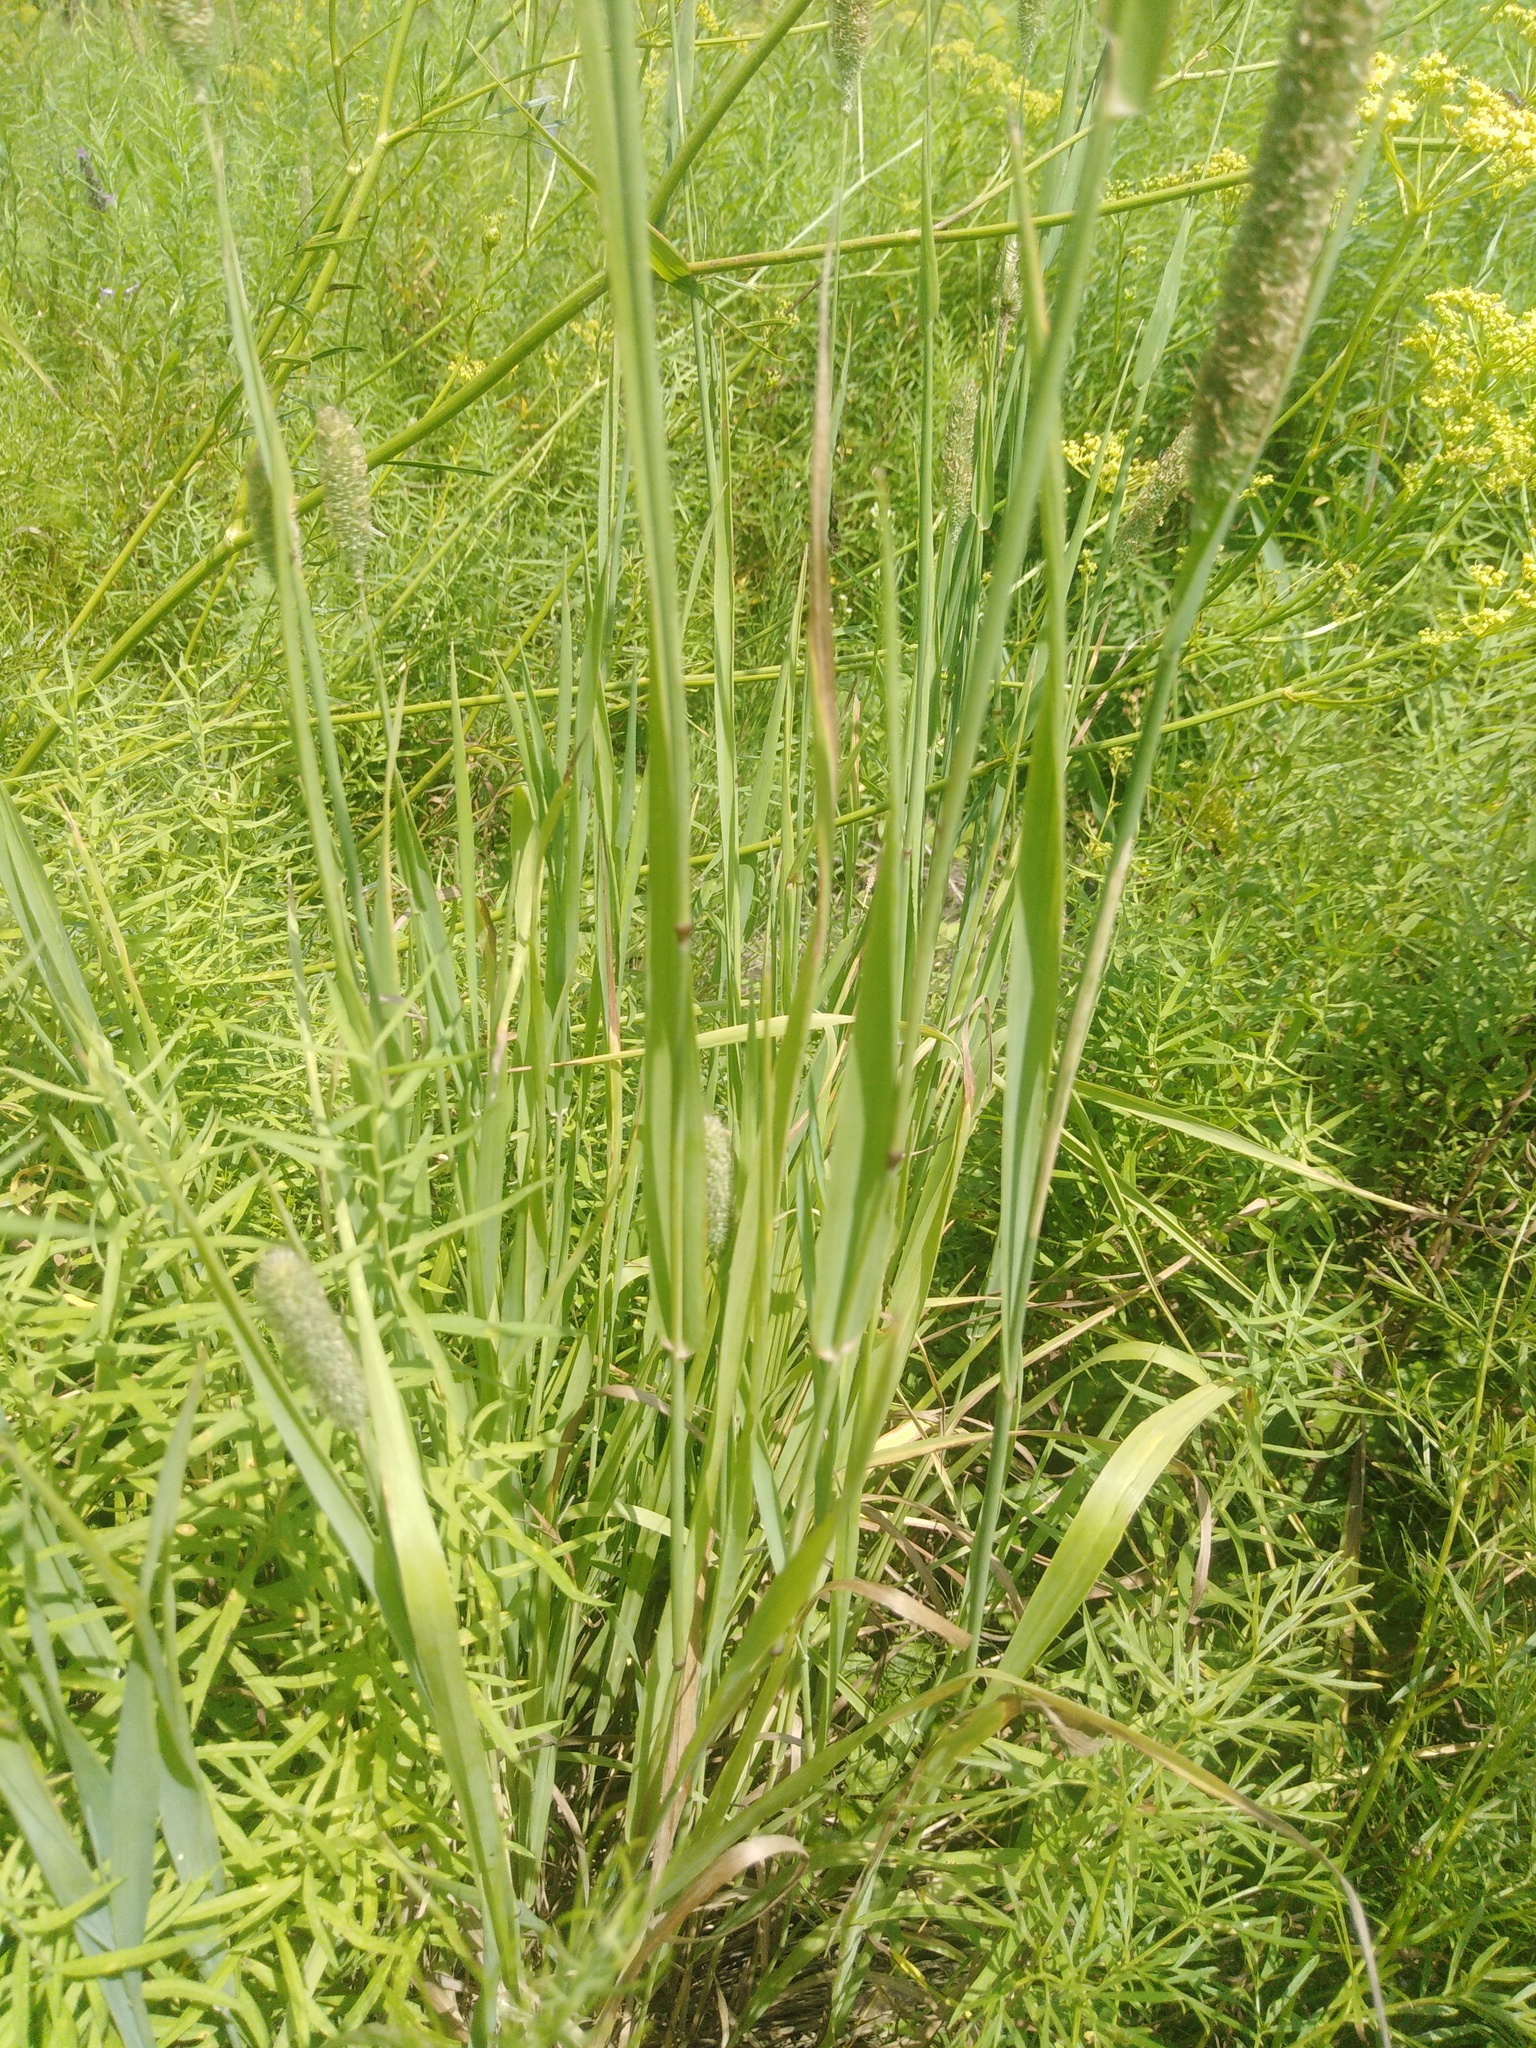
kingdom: Plantae
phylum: Tracheophyta
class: Liliopsida
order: Poales
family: Poaceae
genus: Phleum
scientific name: Phleum pratense
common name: Timothy grass
